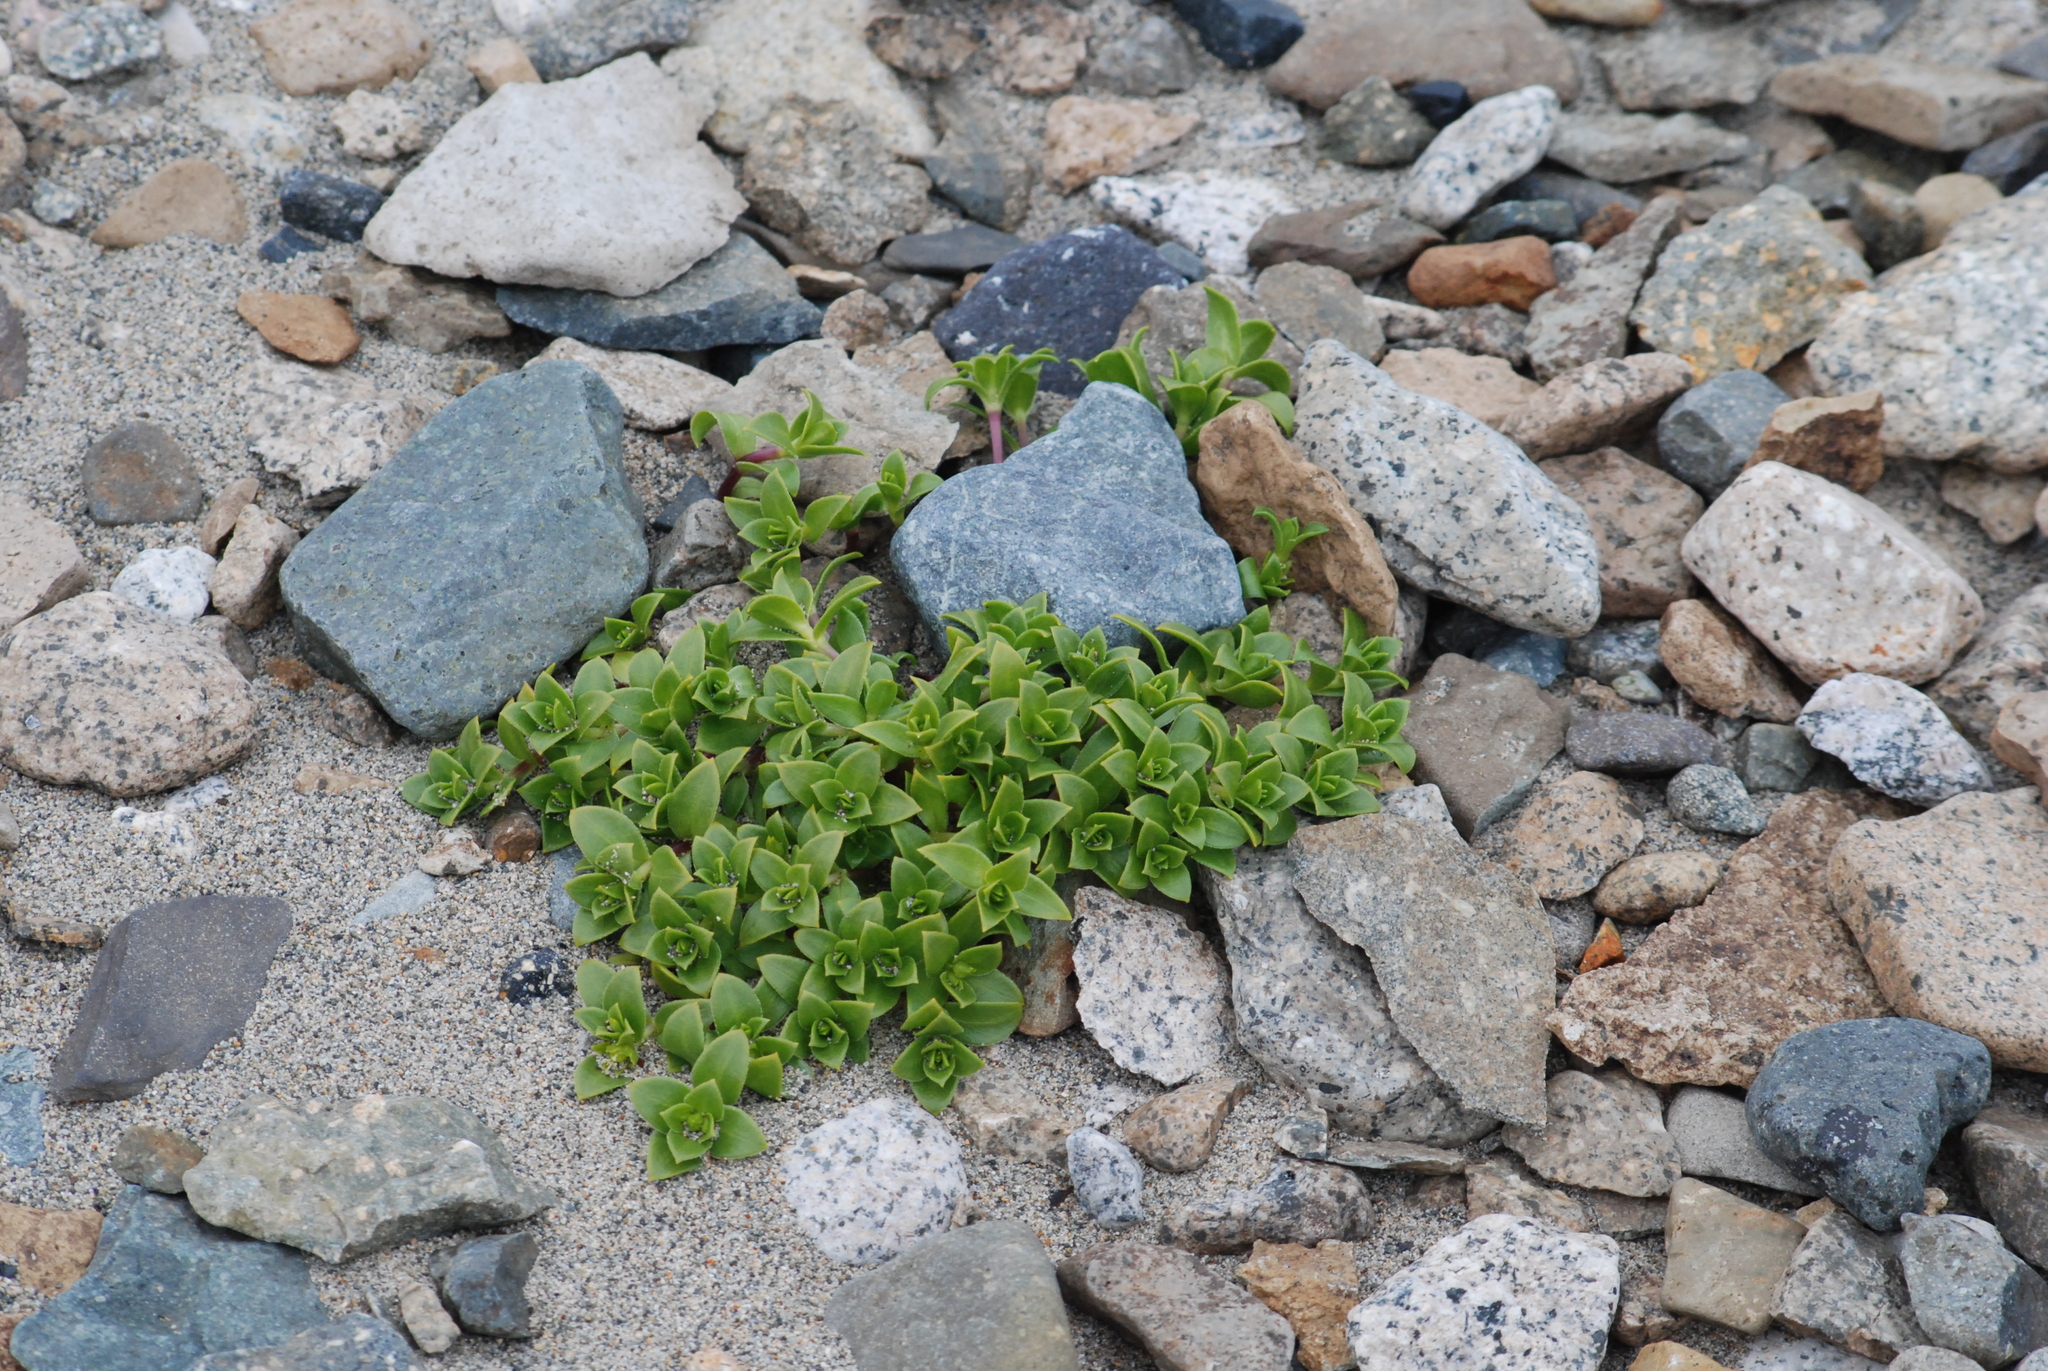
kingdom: Plantae
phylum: Tracheophyta
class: Magnoliopsida
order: Caryophyllales
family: Caryophyllaceae
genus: Honckenya
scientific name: Honckenya peploides
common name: Sea sandwort
